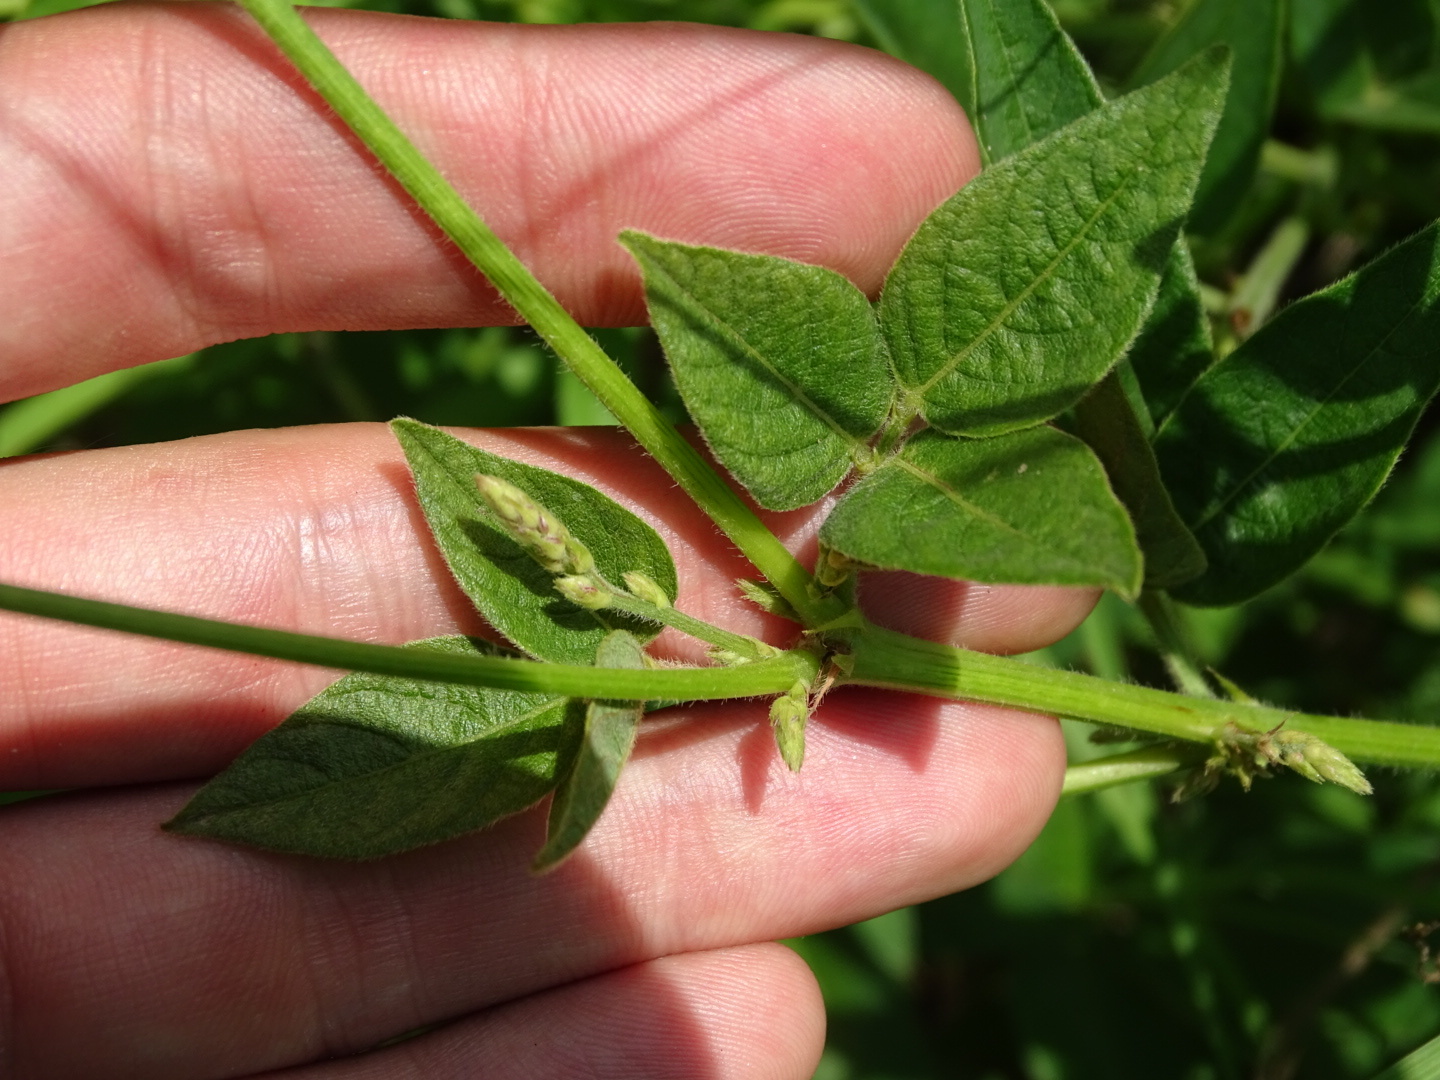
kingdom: Plantae
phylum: Tracheophyta
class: Magnoliopsida
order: Fabales
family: Fabaceae
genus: Desmodium
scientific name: Desmodium perplexum
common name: Perplexed tick trefoil
